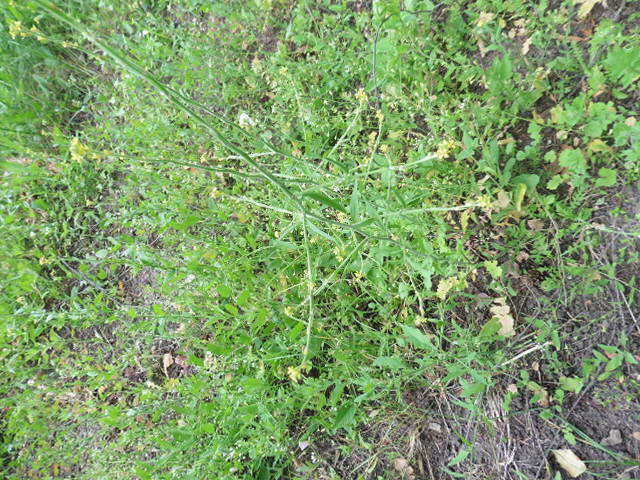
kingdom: Plantae
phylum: Tracheophyta
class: Magnoliopsida
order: Brassicales
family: Brassicaceae
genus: Sisymbrium
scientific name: Sisymbrium officinale
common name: Hedge mustard
